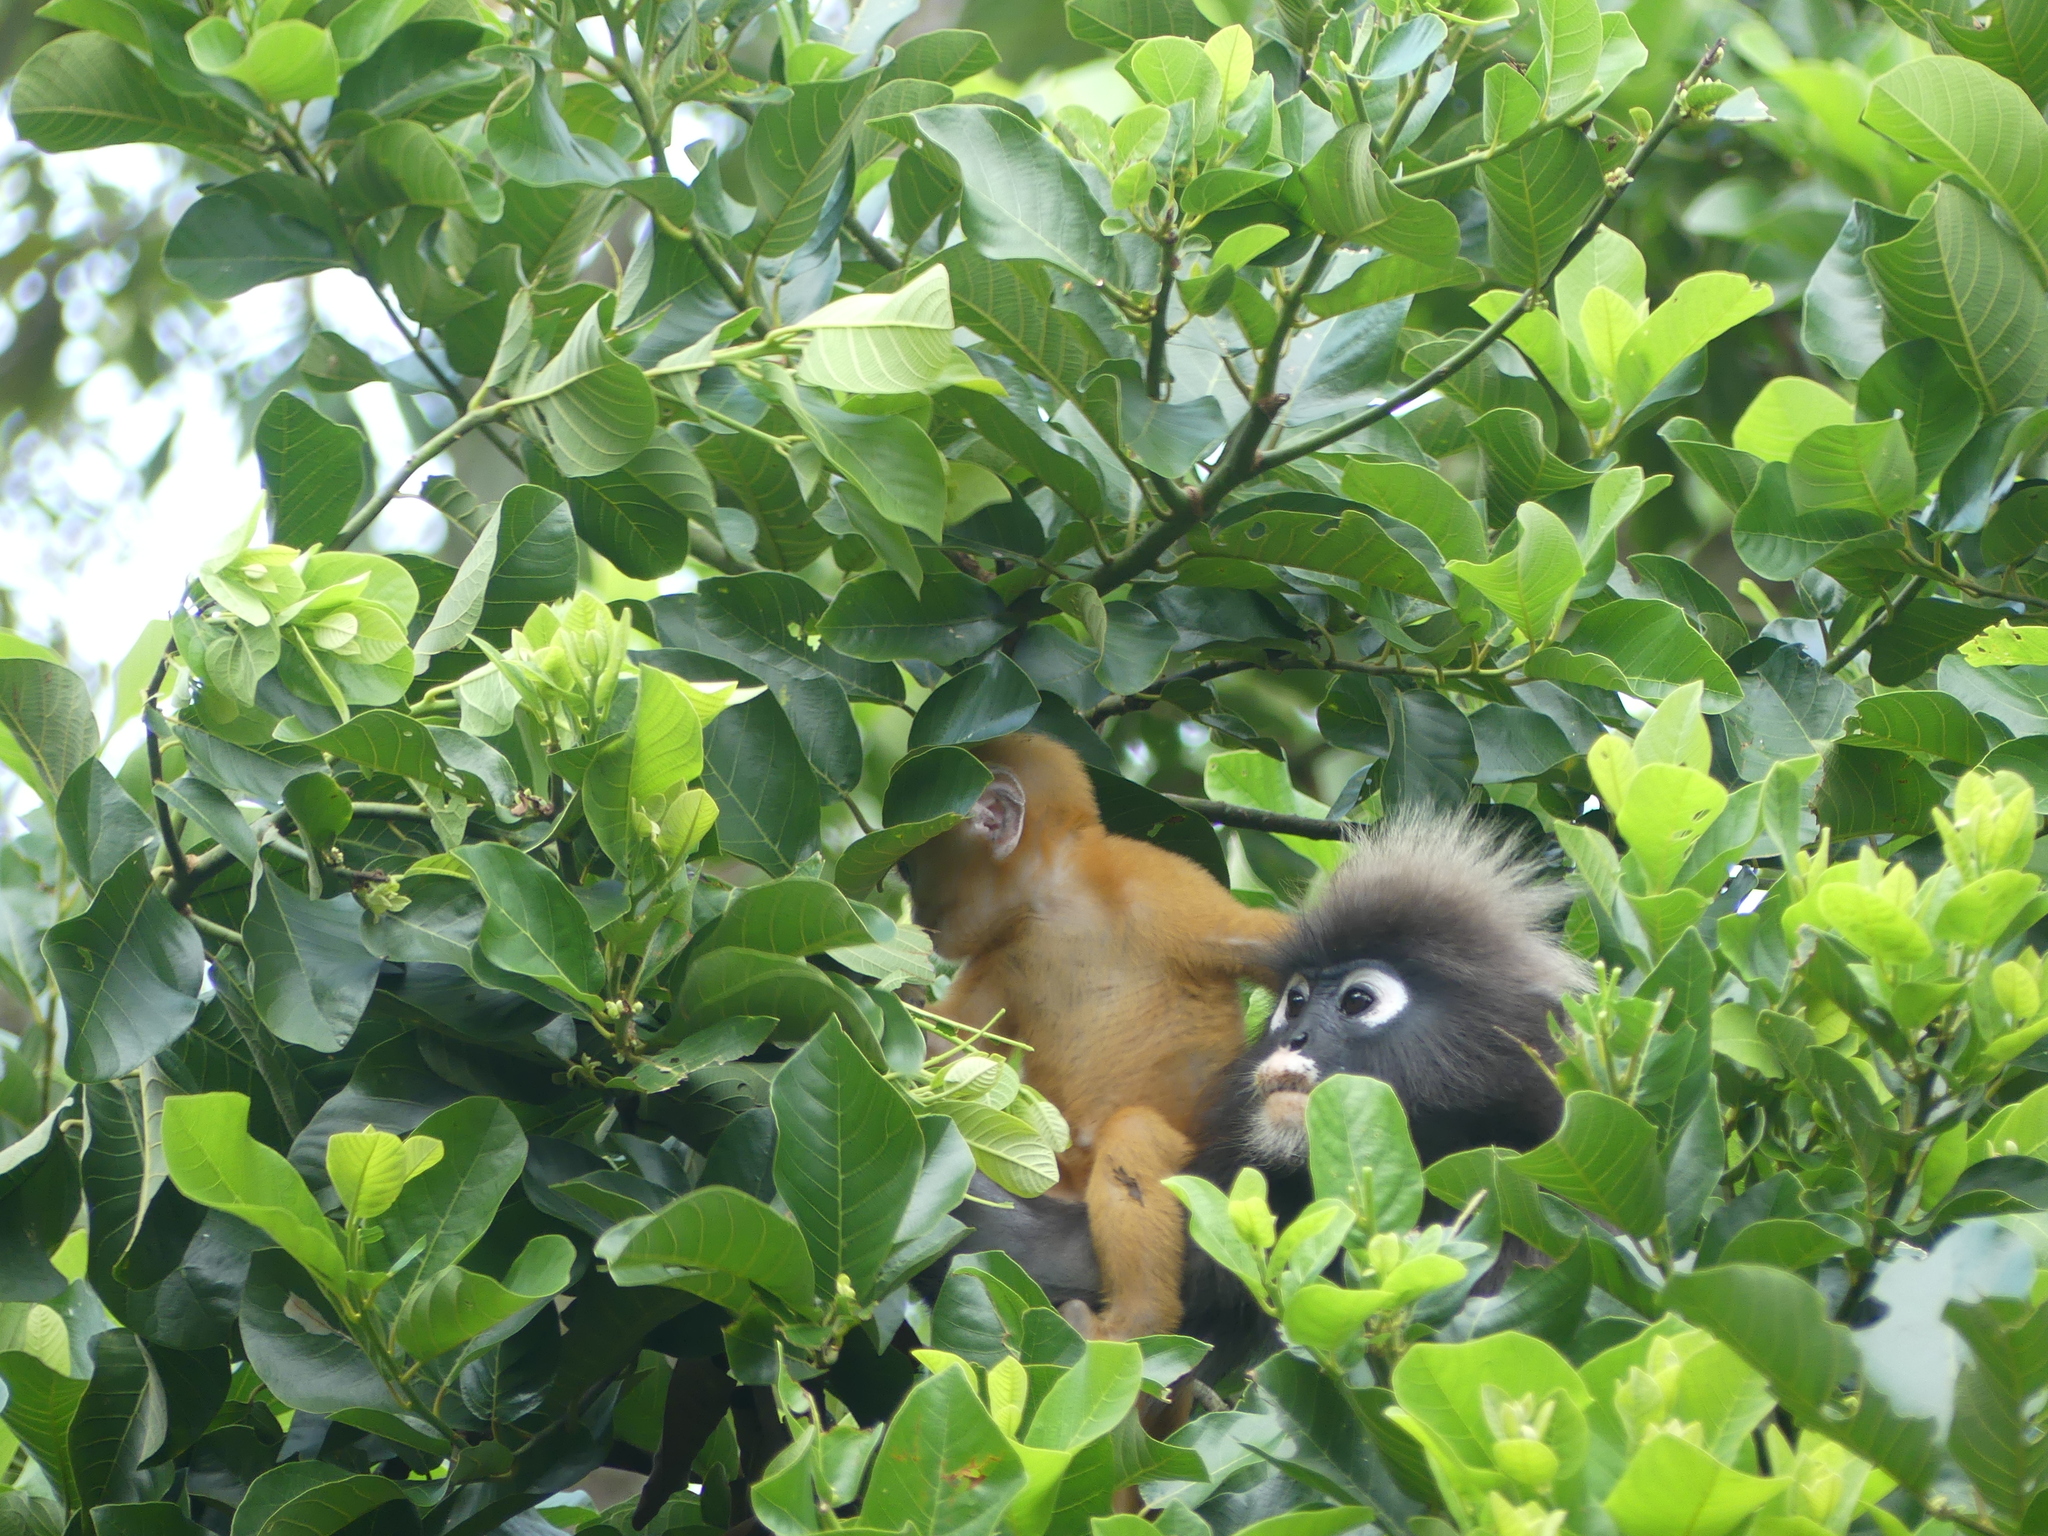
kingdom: Animalia
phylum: Chordata
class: Mammalia
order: Primates
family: Cercopithecidae
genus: Trachypithecus
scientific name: Trachypithecus obscurus
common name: Dusky leaf-monkey
